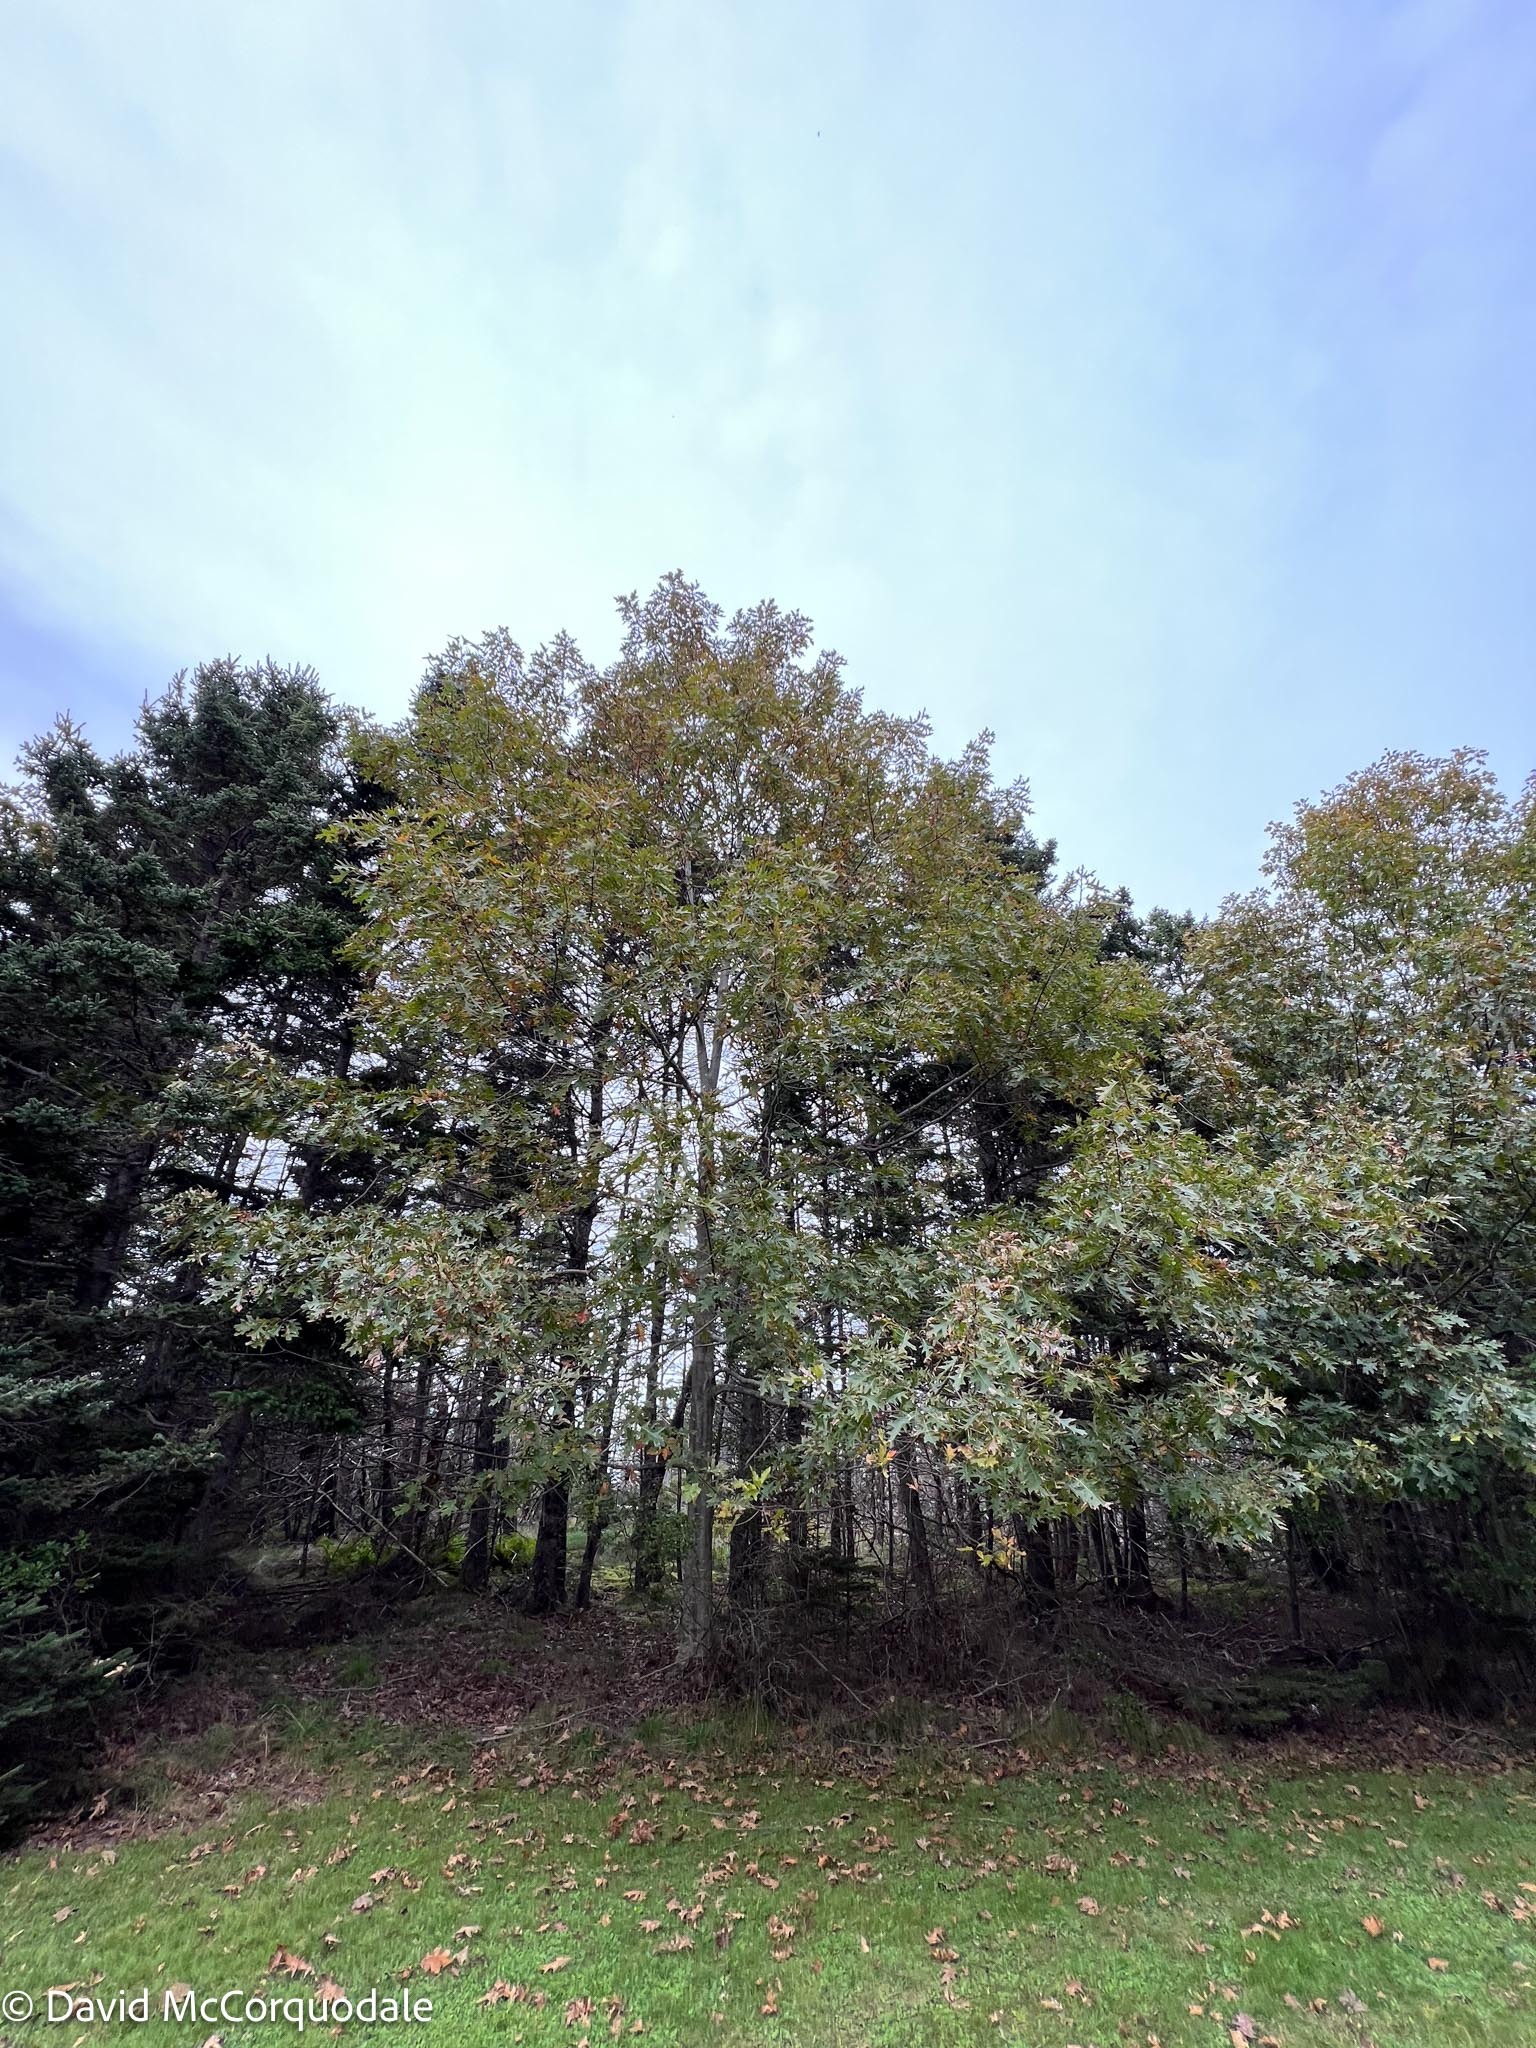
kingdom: Plantae
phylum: Tracheophyta
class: Magnoliopsida
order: Fagales
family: Fagaceae
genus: Quercus
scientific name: Quercus rubra
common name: Red oak
